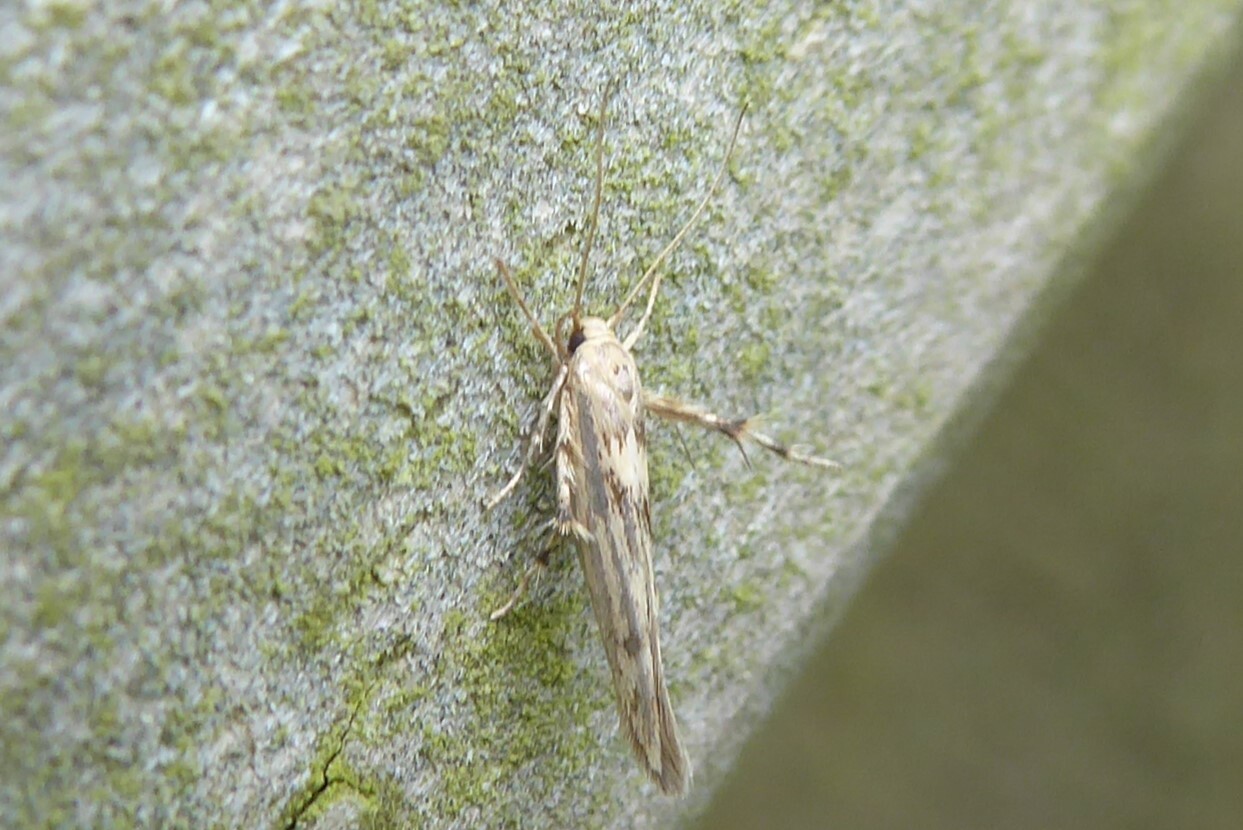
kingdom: Animalia
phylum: Arthropoda
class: Insecta
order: Lepidoptera
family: Stathmopodidae
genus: Stathmopoda
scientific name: Stathmopoda plumbiflua
